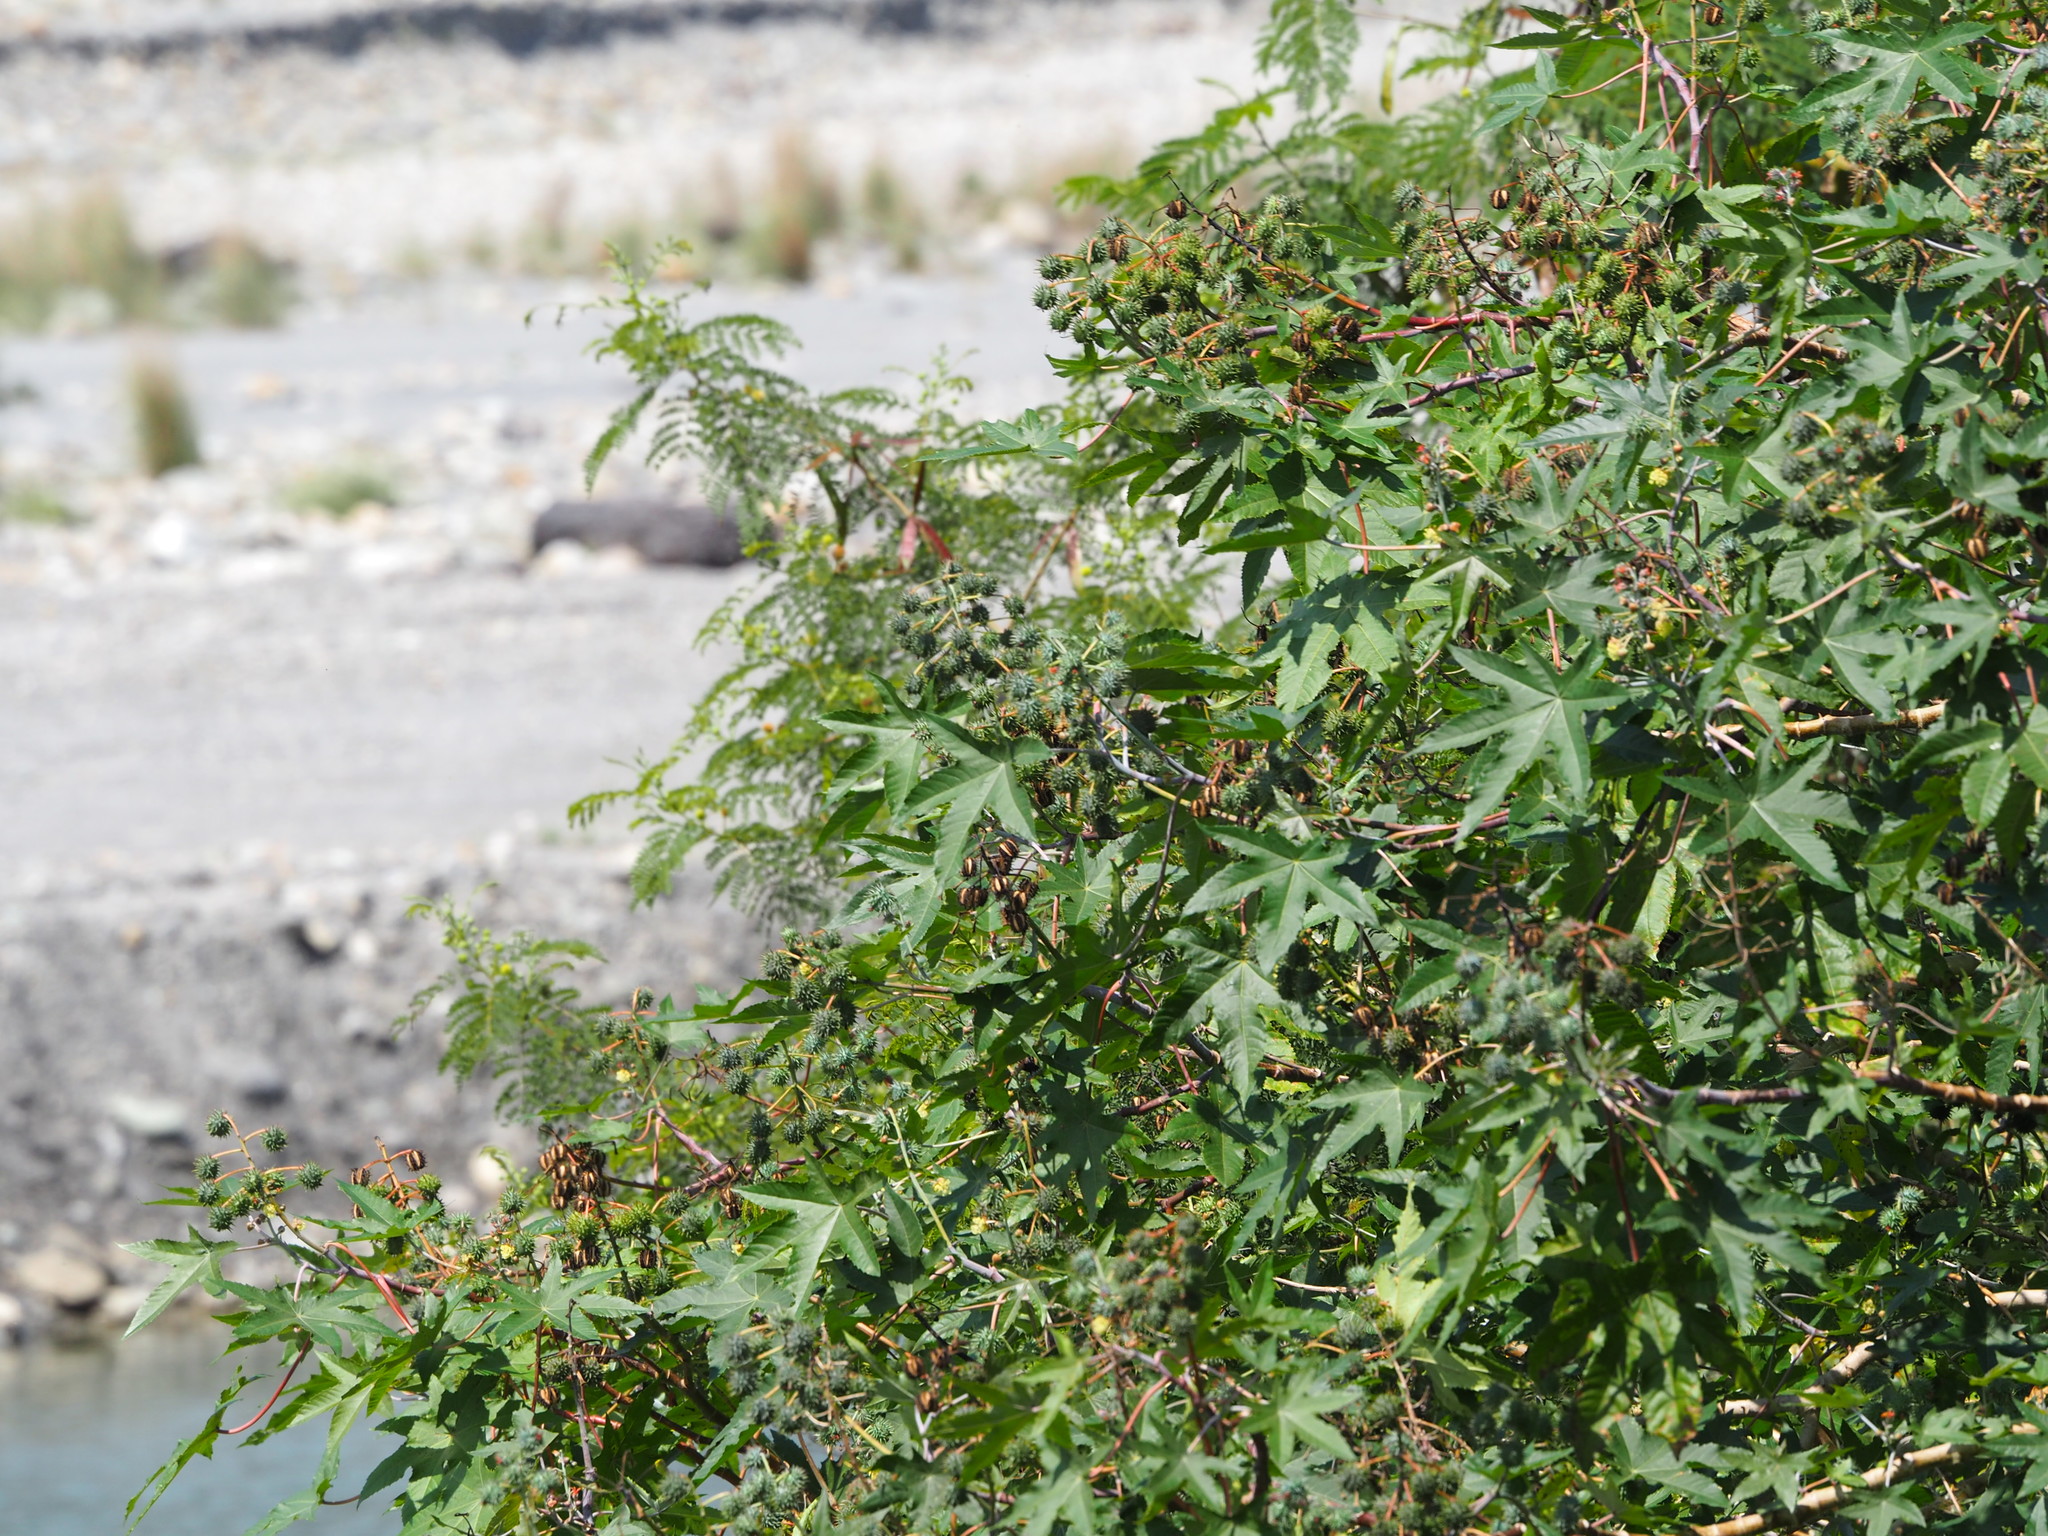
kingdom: Plantae
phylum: Tracheophyta
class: Magnoliopsida
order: Malpighiales
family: Euphorbiaceae
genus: Ricinus
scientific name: Ricinus communis
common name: Castor-oil-plant
